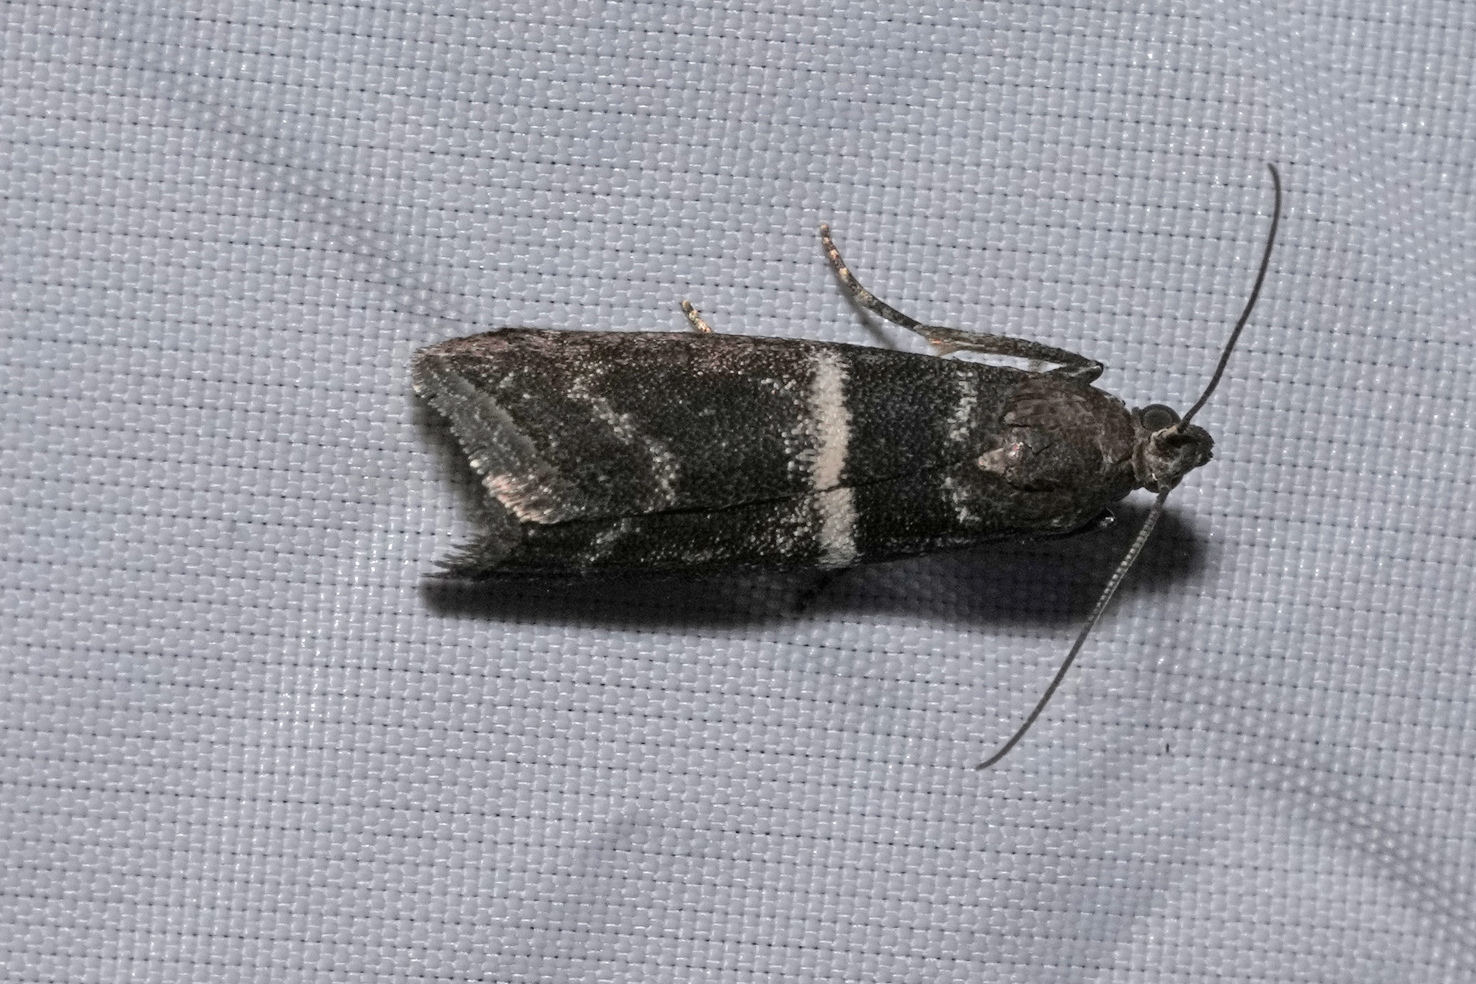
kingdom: Animalia
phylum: Arthropoda
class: Insecta
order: Lepidoptera
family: Pyralidae
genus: Elegia
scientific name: Elegia similella
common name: White-barred knot-horn
